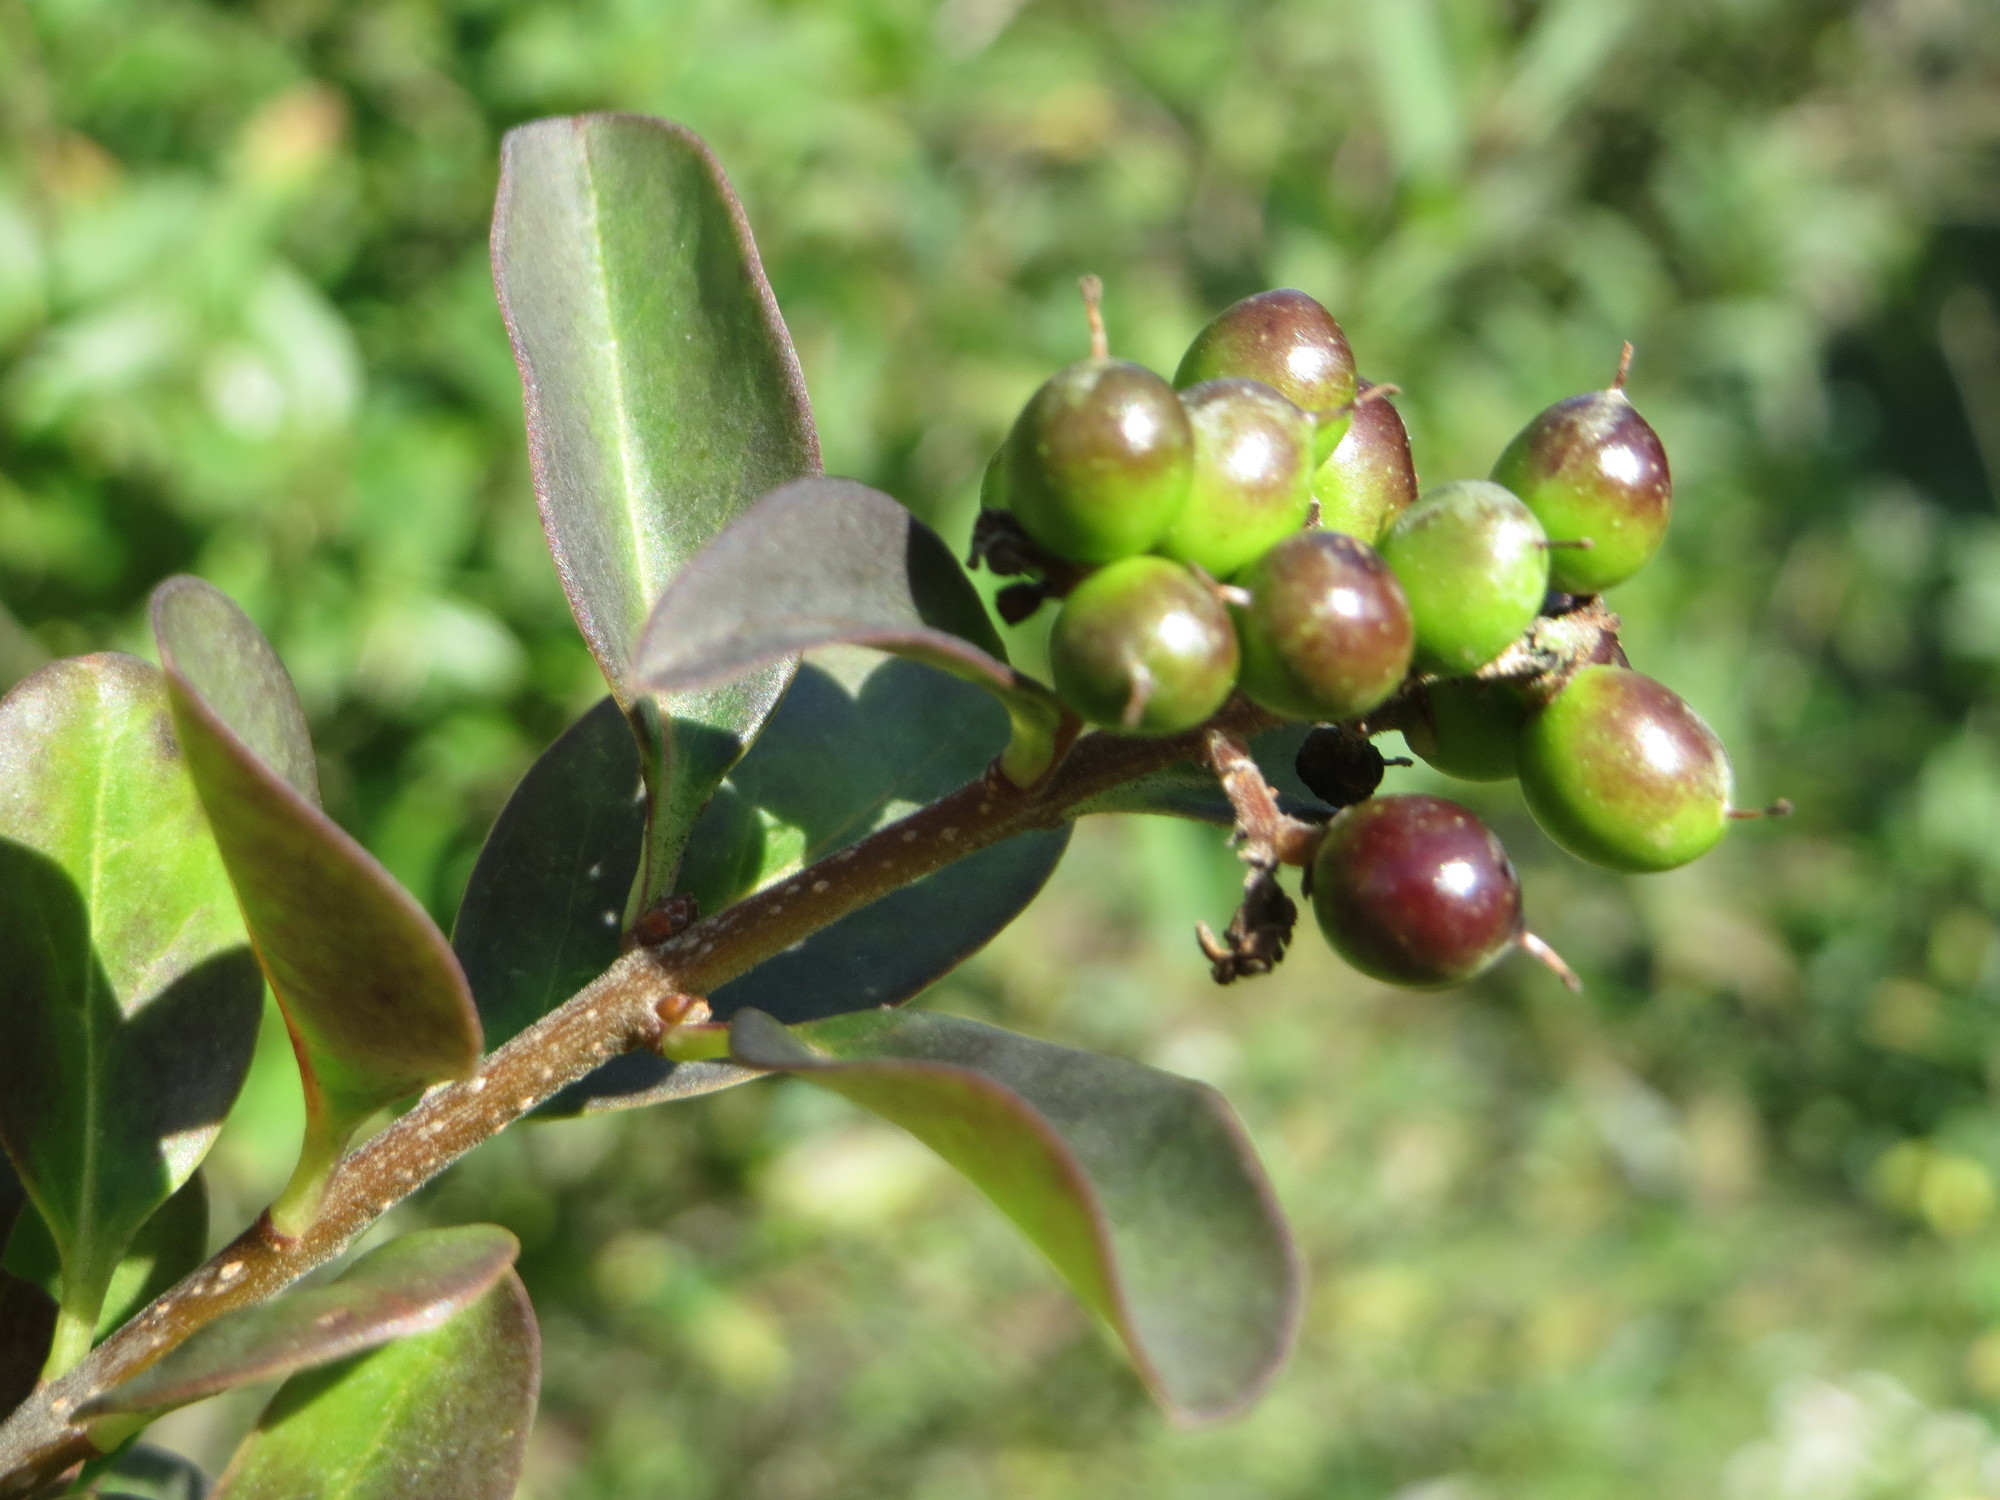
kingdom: Plantae
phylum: Tracheophyta
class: Magnoliopsida
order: Lamiales
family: Oleaceae
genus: Ligustrum
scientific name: Ligustrum vulgare
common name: Wild privet
